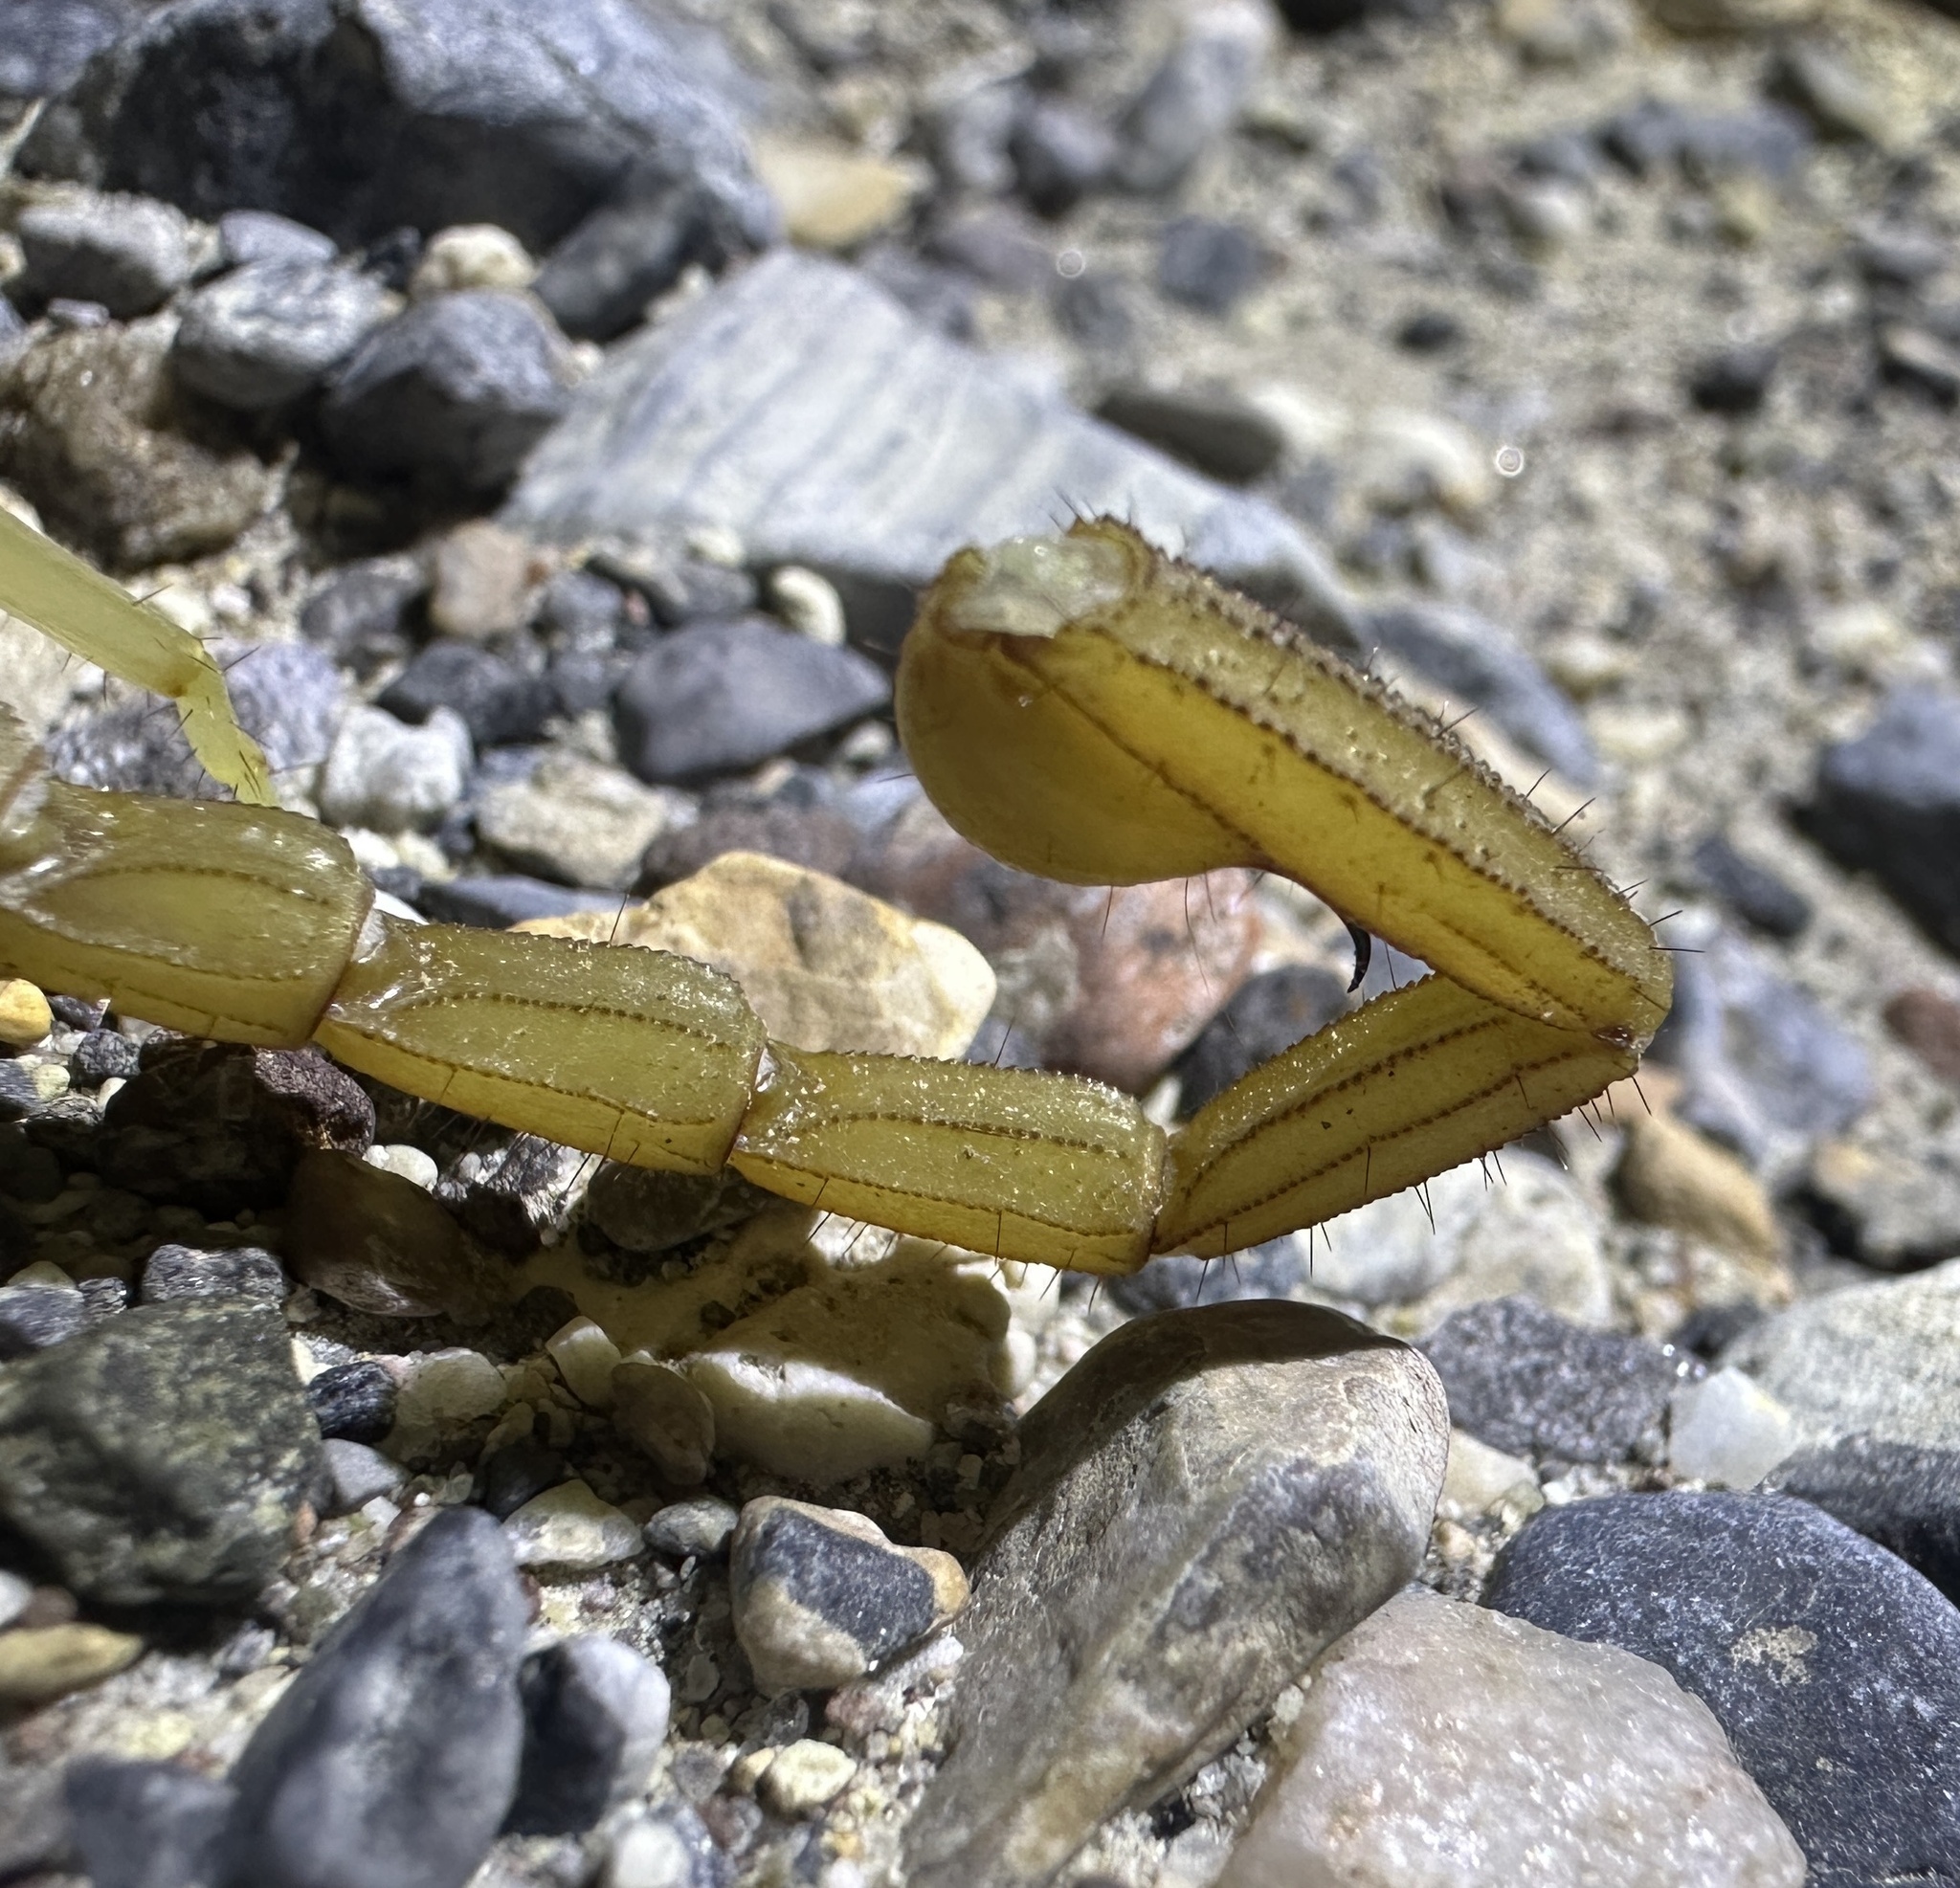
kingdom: Animalia
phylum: Arthropoda
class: Arachnida
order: Scorpiones
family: Vaejovidae
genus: Smeringurus
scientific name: Smeringurus vachoni
